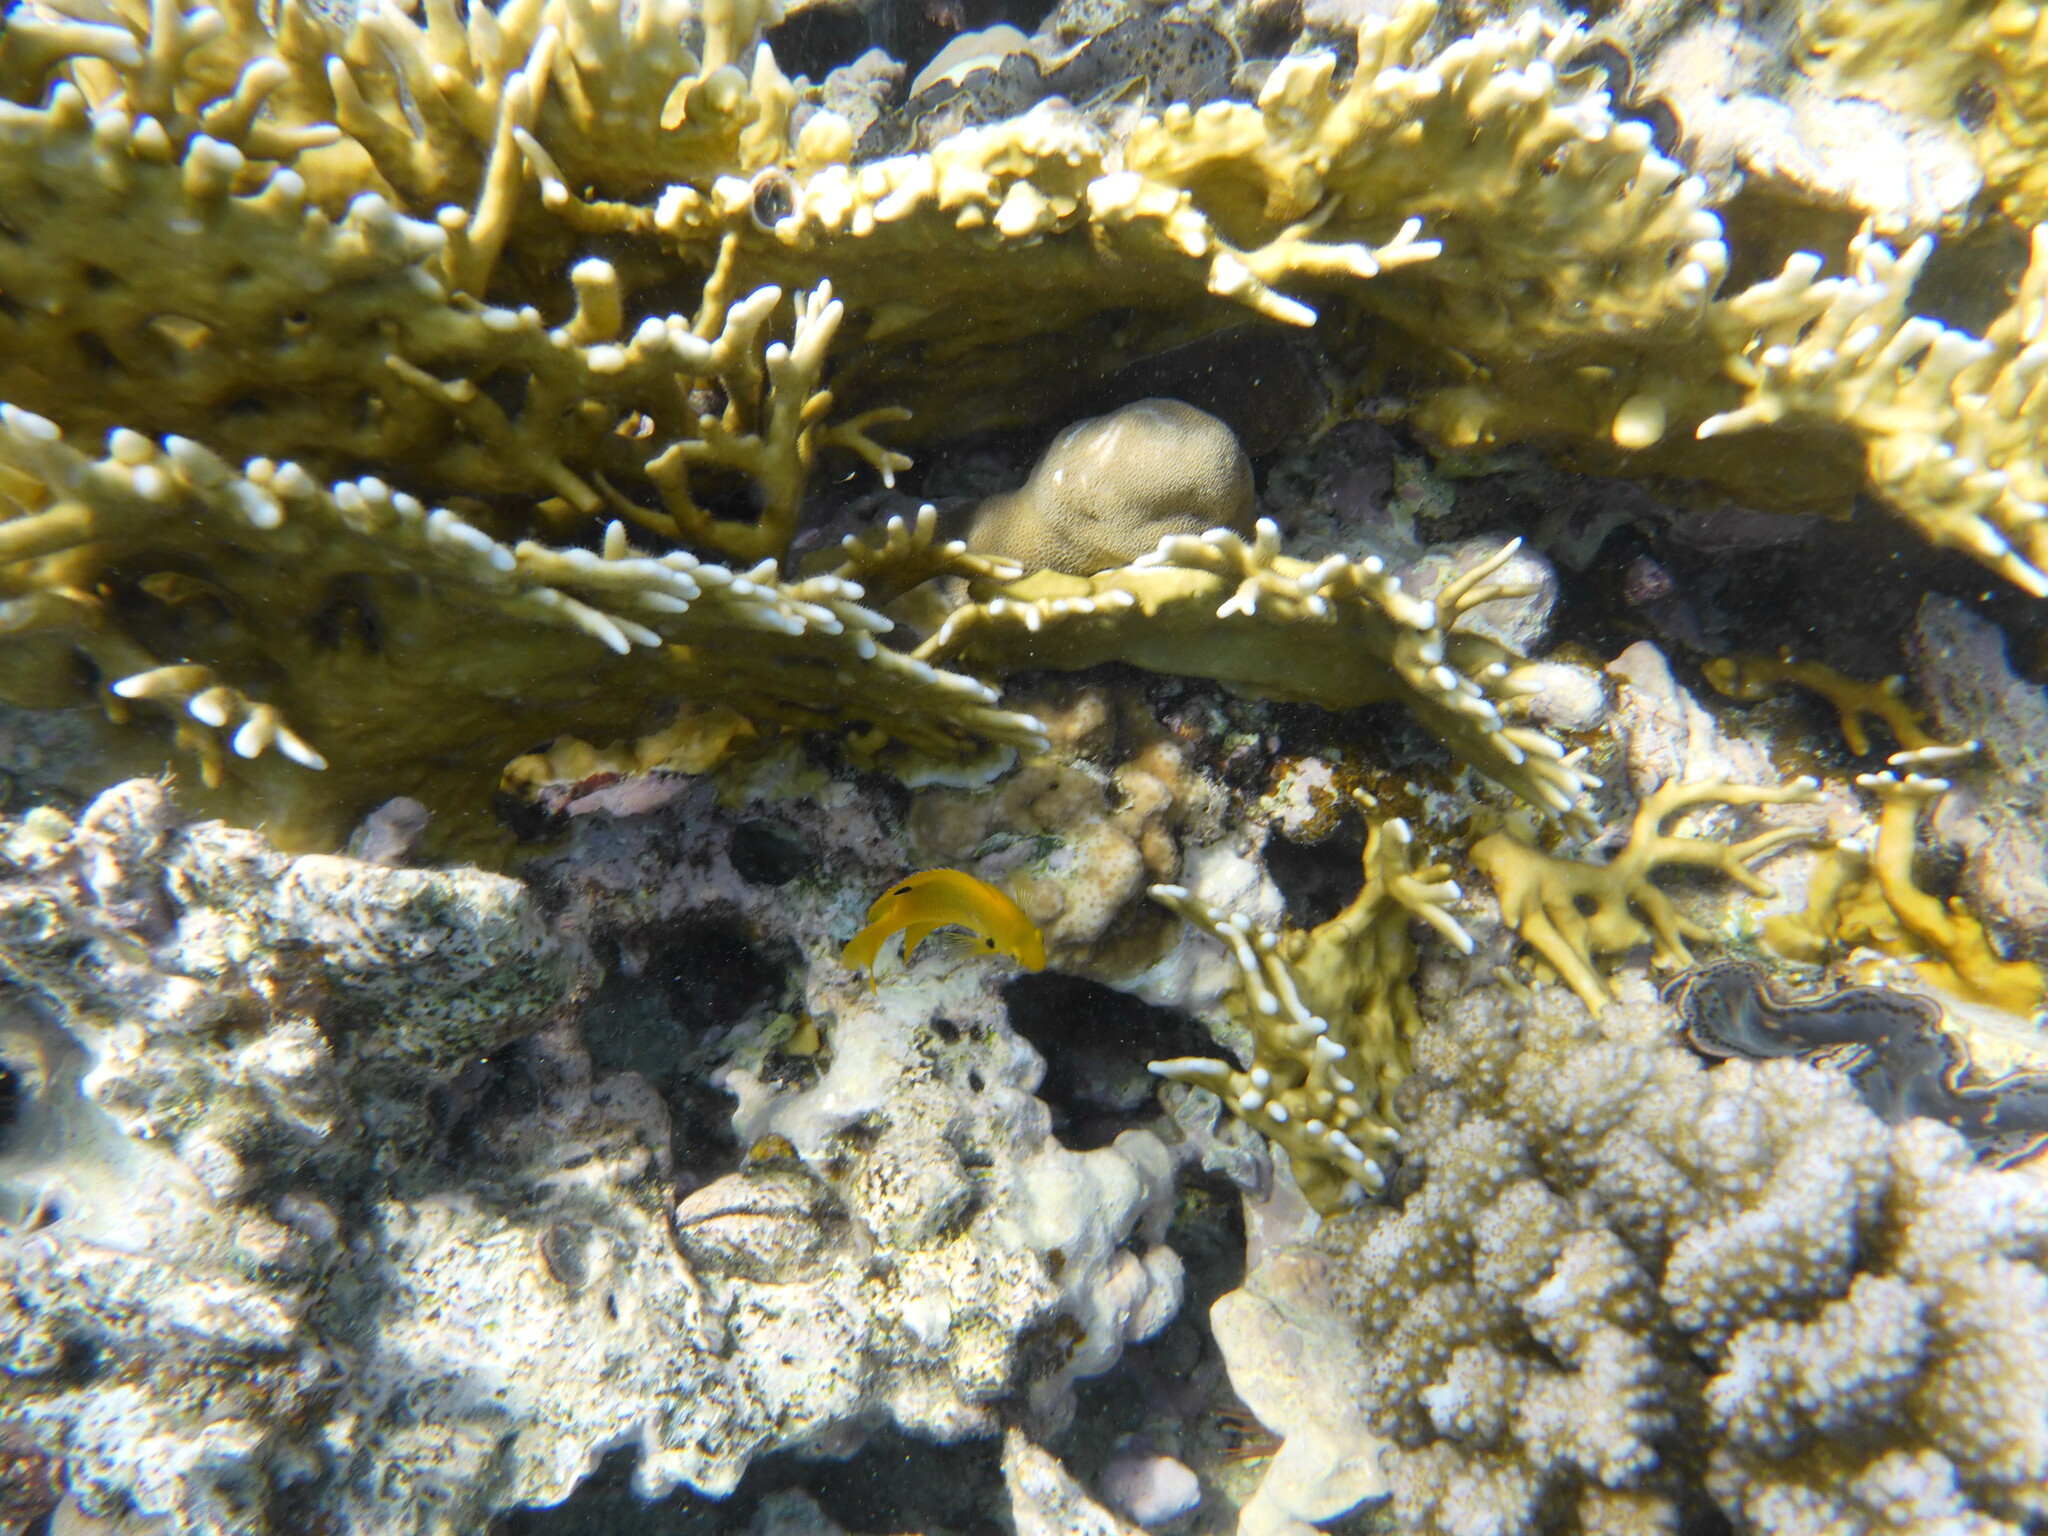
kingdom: Animalia
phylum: Chordata
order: Perciformes
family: Pomacentridae
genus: Pomacentrus
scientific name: Pomacentrus sulfureus
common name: Sulfur damsel
